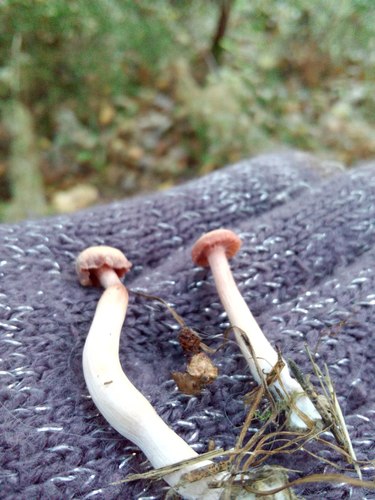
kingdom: Fungi
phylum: Basidiomycota
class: Agaricomycetes
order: Agaricales
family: Hydnangiaceae
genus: Laccaria
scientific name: Laccaria
